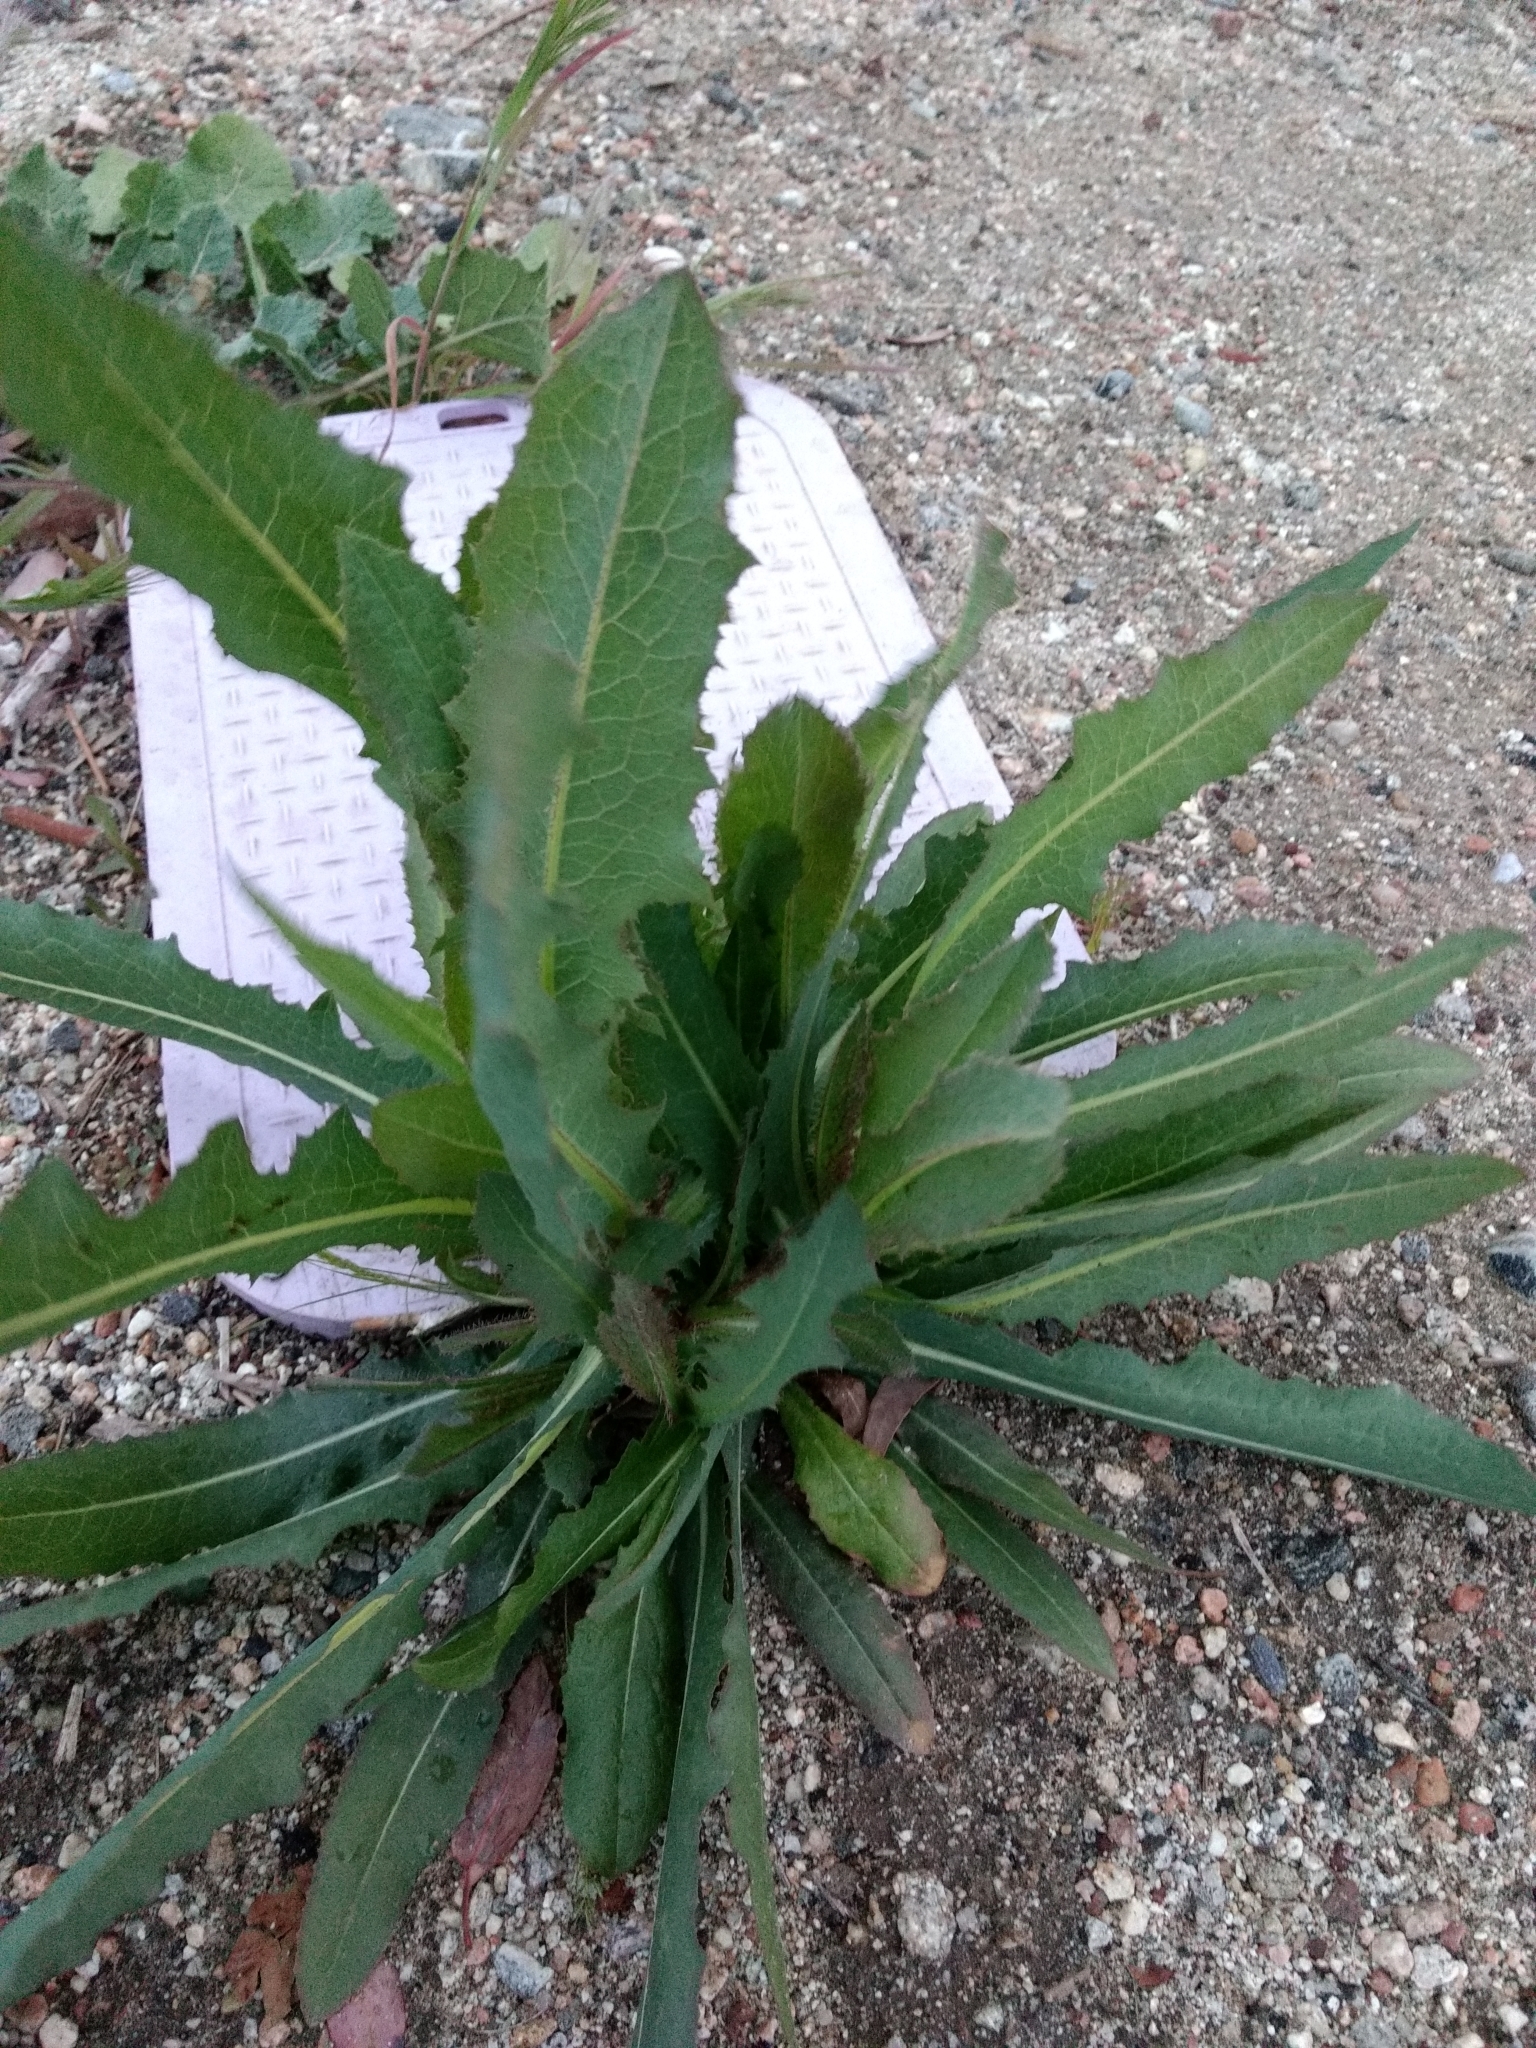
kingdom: Plantae
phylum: Tracheophyta
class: Magnoliopsida
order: Asterales
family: Asteraceae
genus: Lactuca
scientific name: Lactuca serriola
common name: Prickly lettuce
